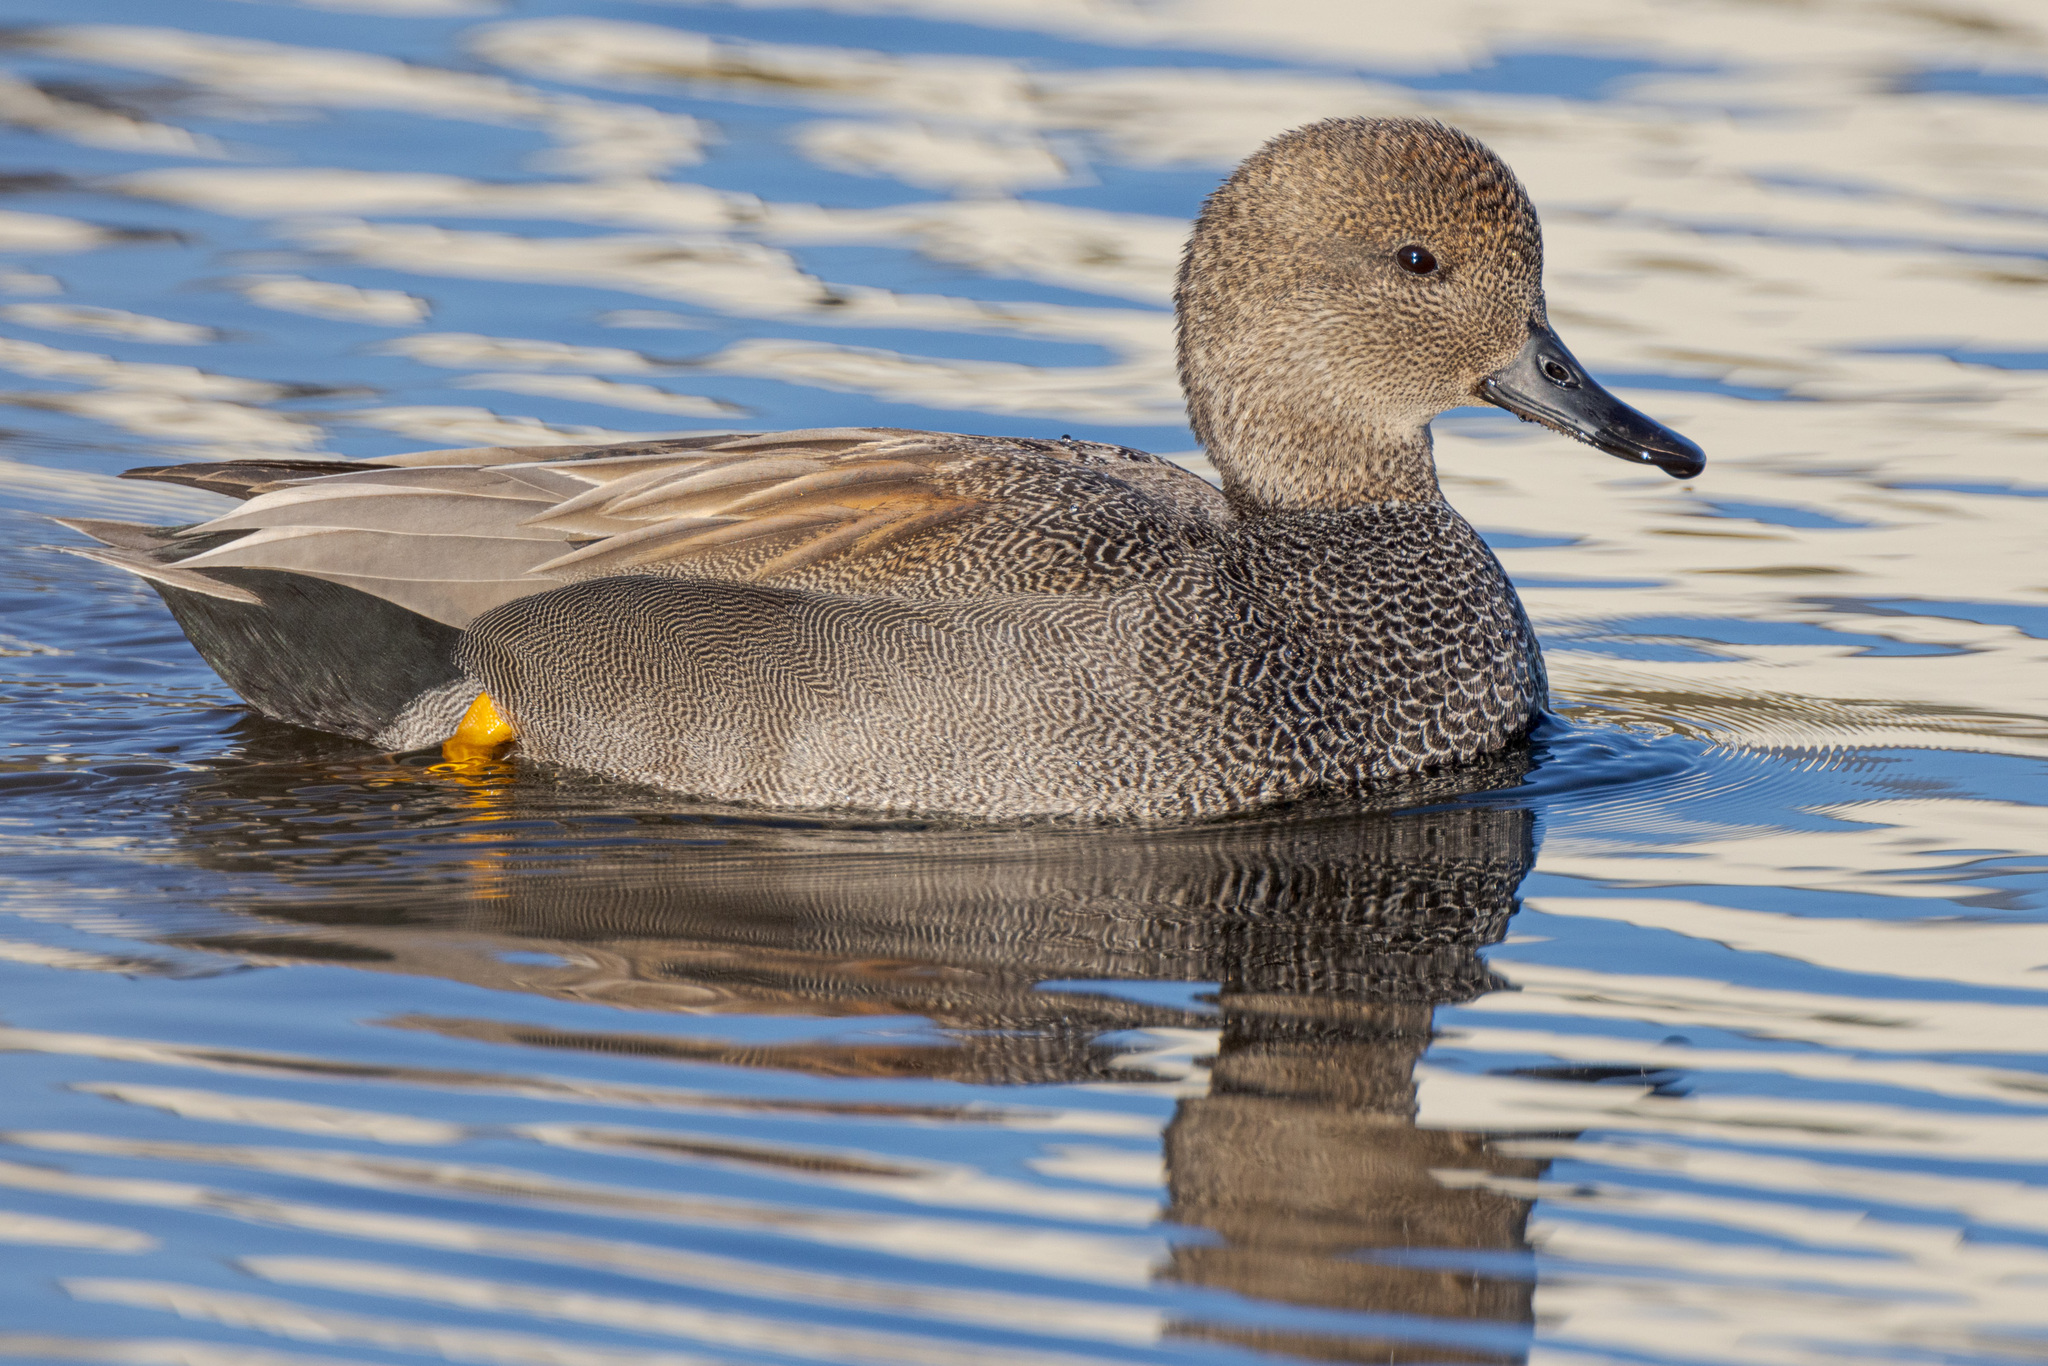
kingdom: Animalia
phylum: Chordata
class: Aves
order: Anseriformes
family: Anatidae
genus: Mareca
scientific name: Mareca strepera
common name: Gadwall
